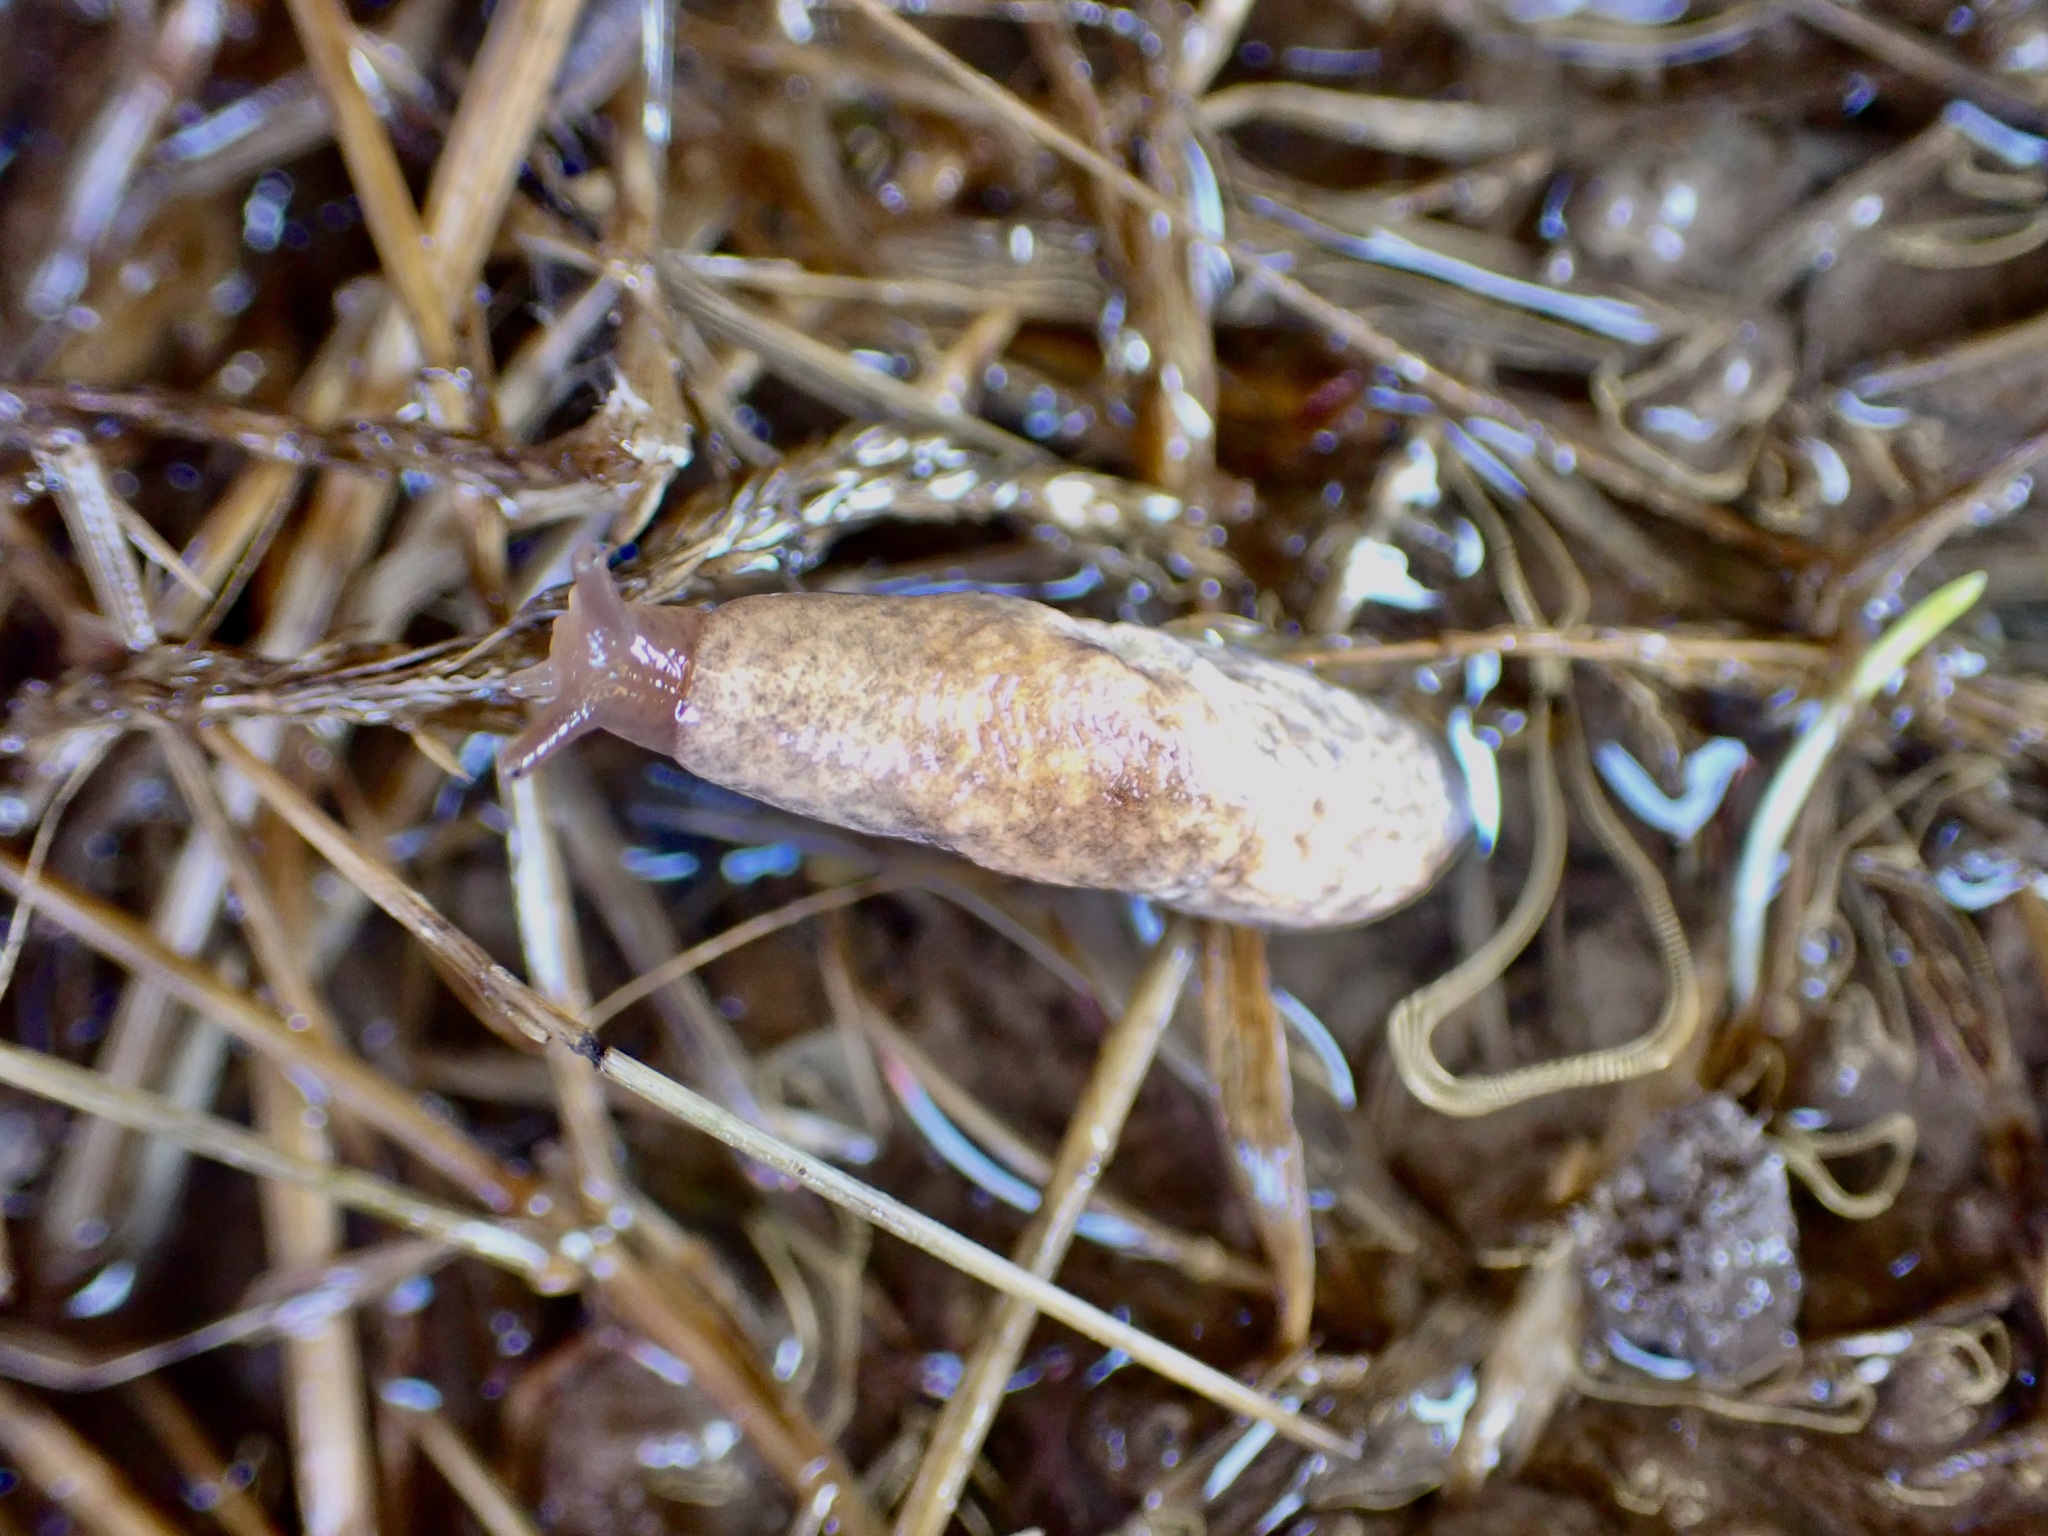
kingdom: Animalia
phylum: Mollusca
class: Gastropoda
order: Stylommatophora
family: Agriolimacidae
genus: Deroceras
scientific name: Deroceras reticulatum
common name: Gray field slug
